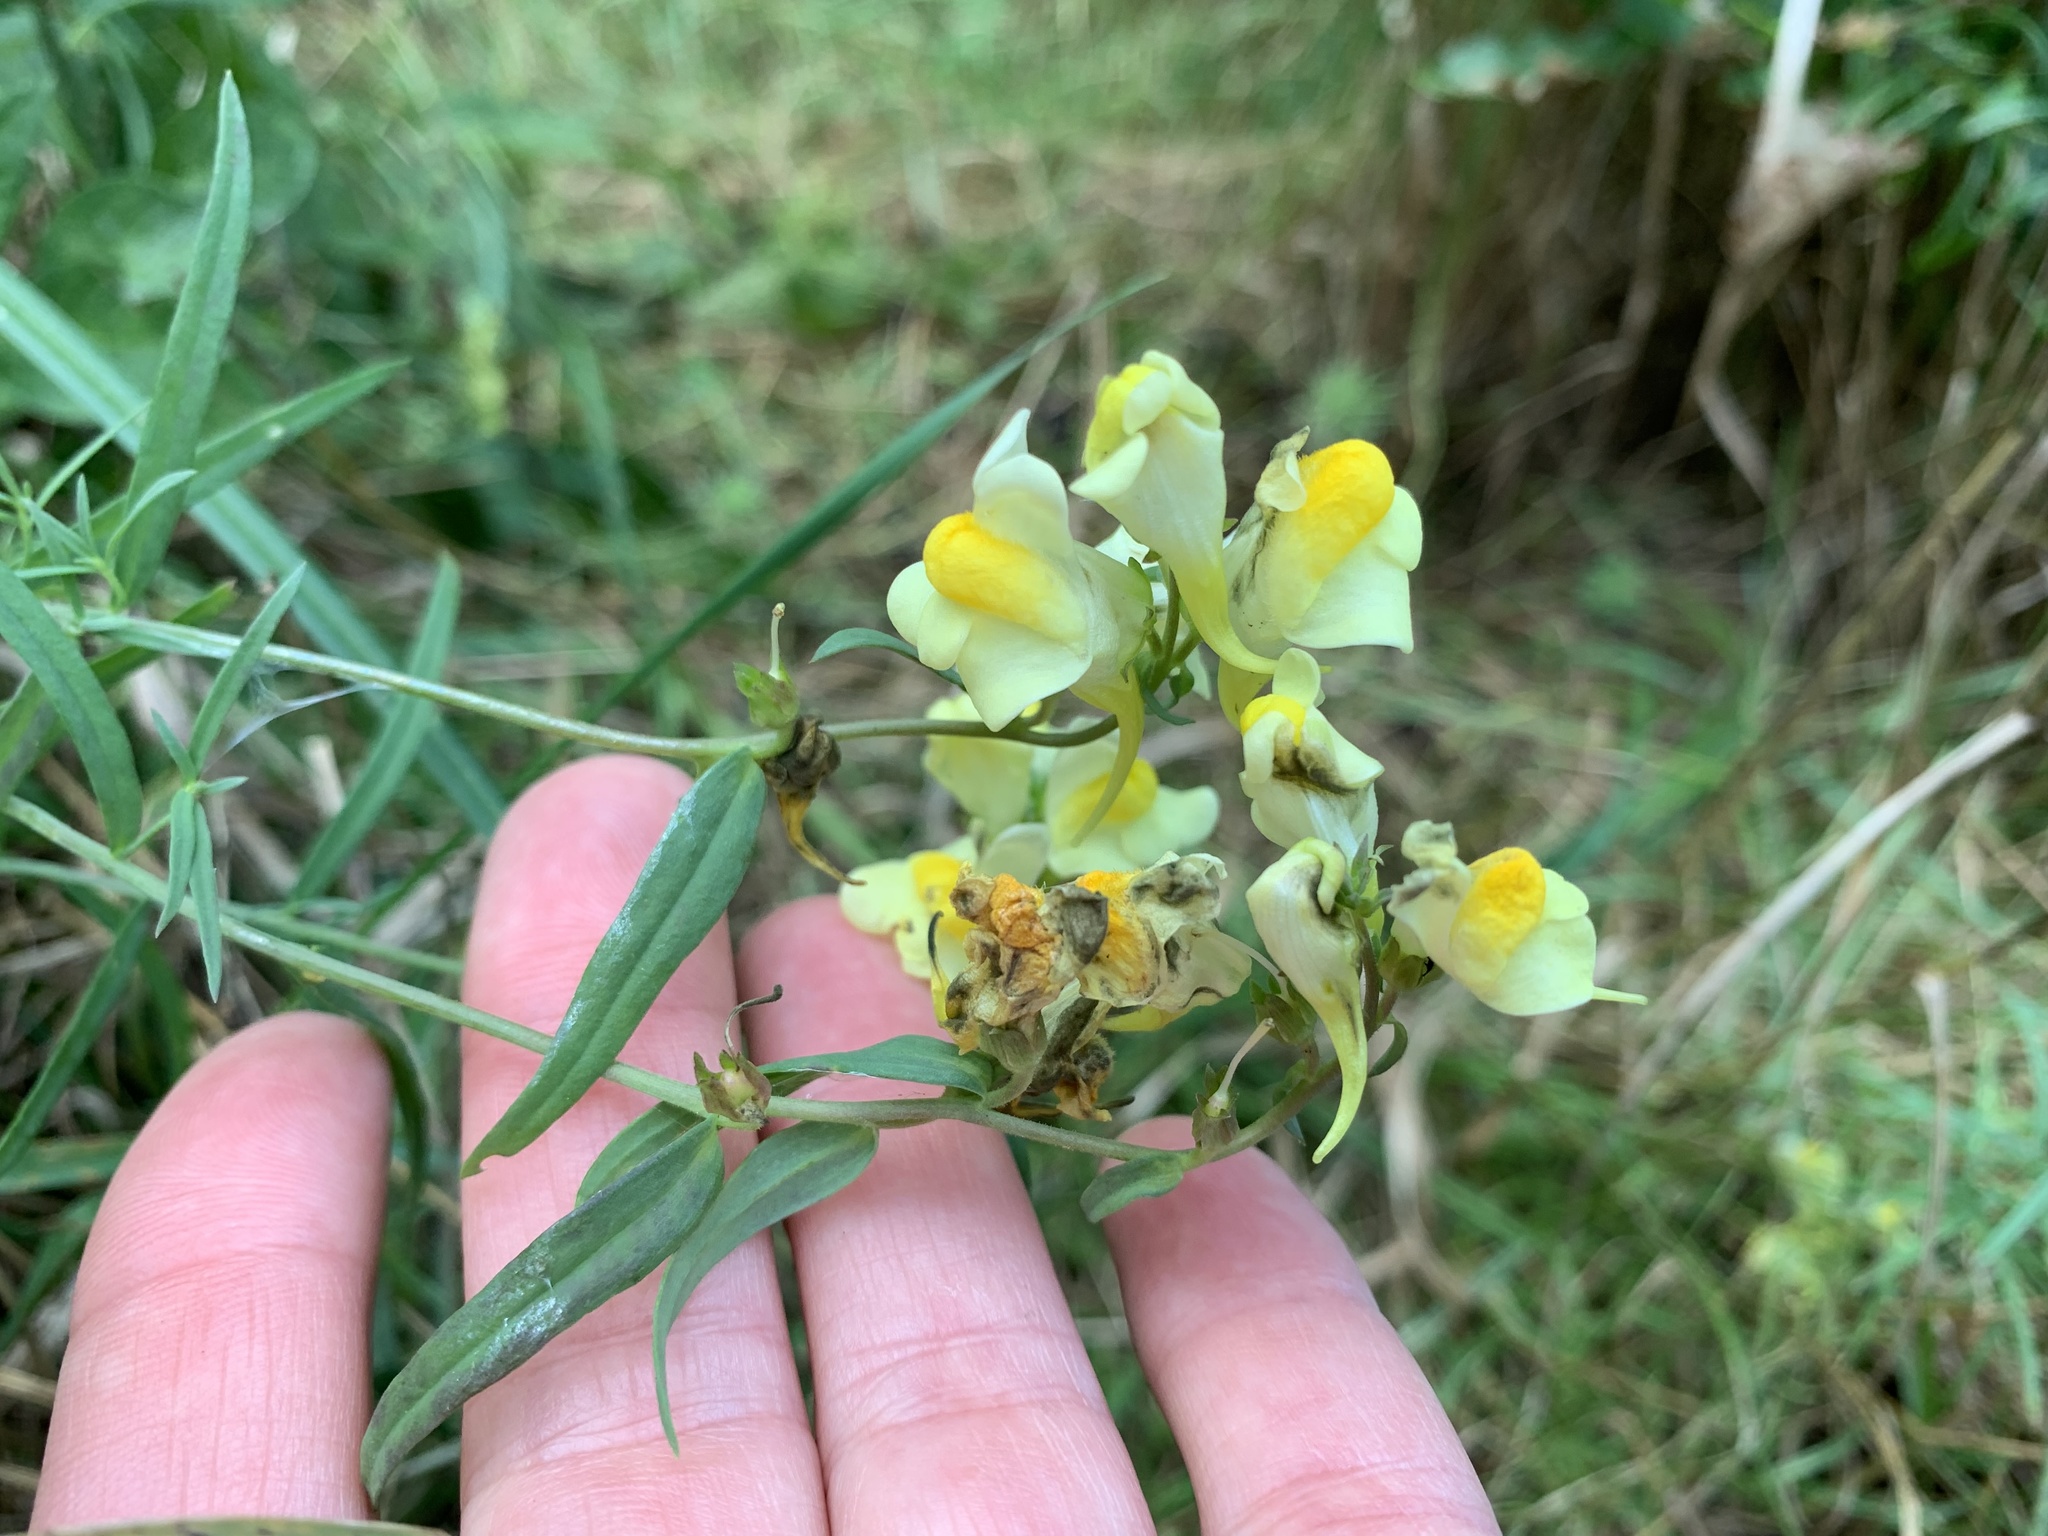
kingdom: Plantae
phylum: Tracheophyta
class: Magnoliopsida
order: Lamiales
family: Plantaginaceae
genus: Linaria
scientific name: Linaria vulgaris
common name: Butter and eggs
